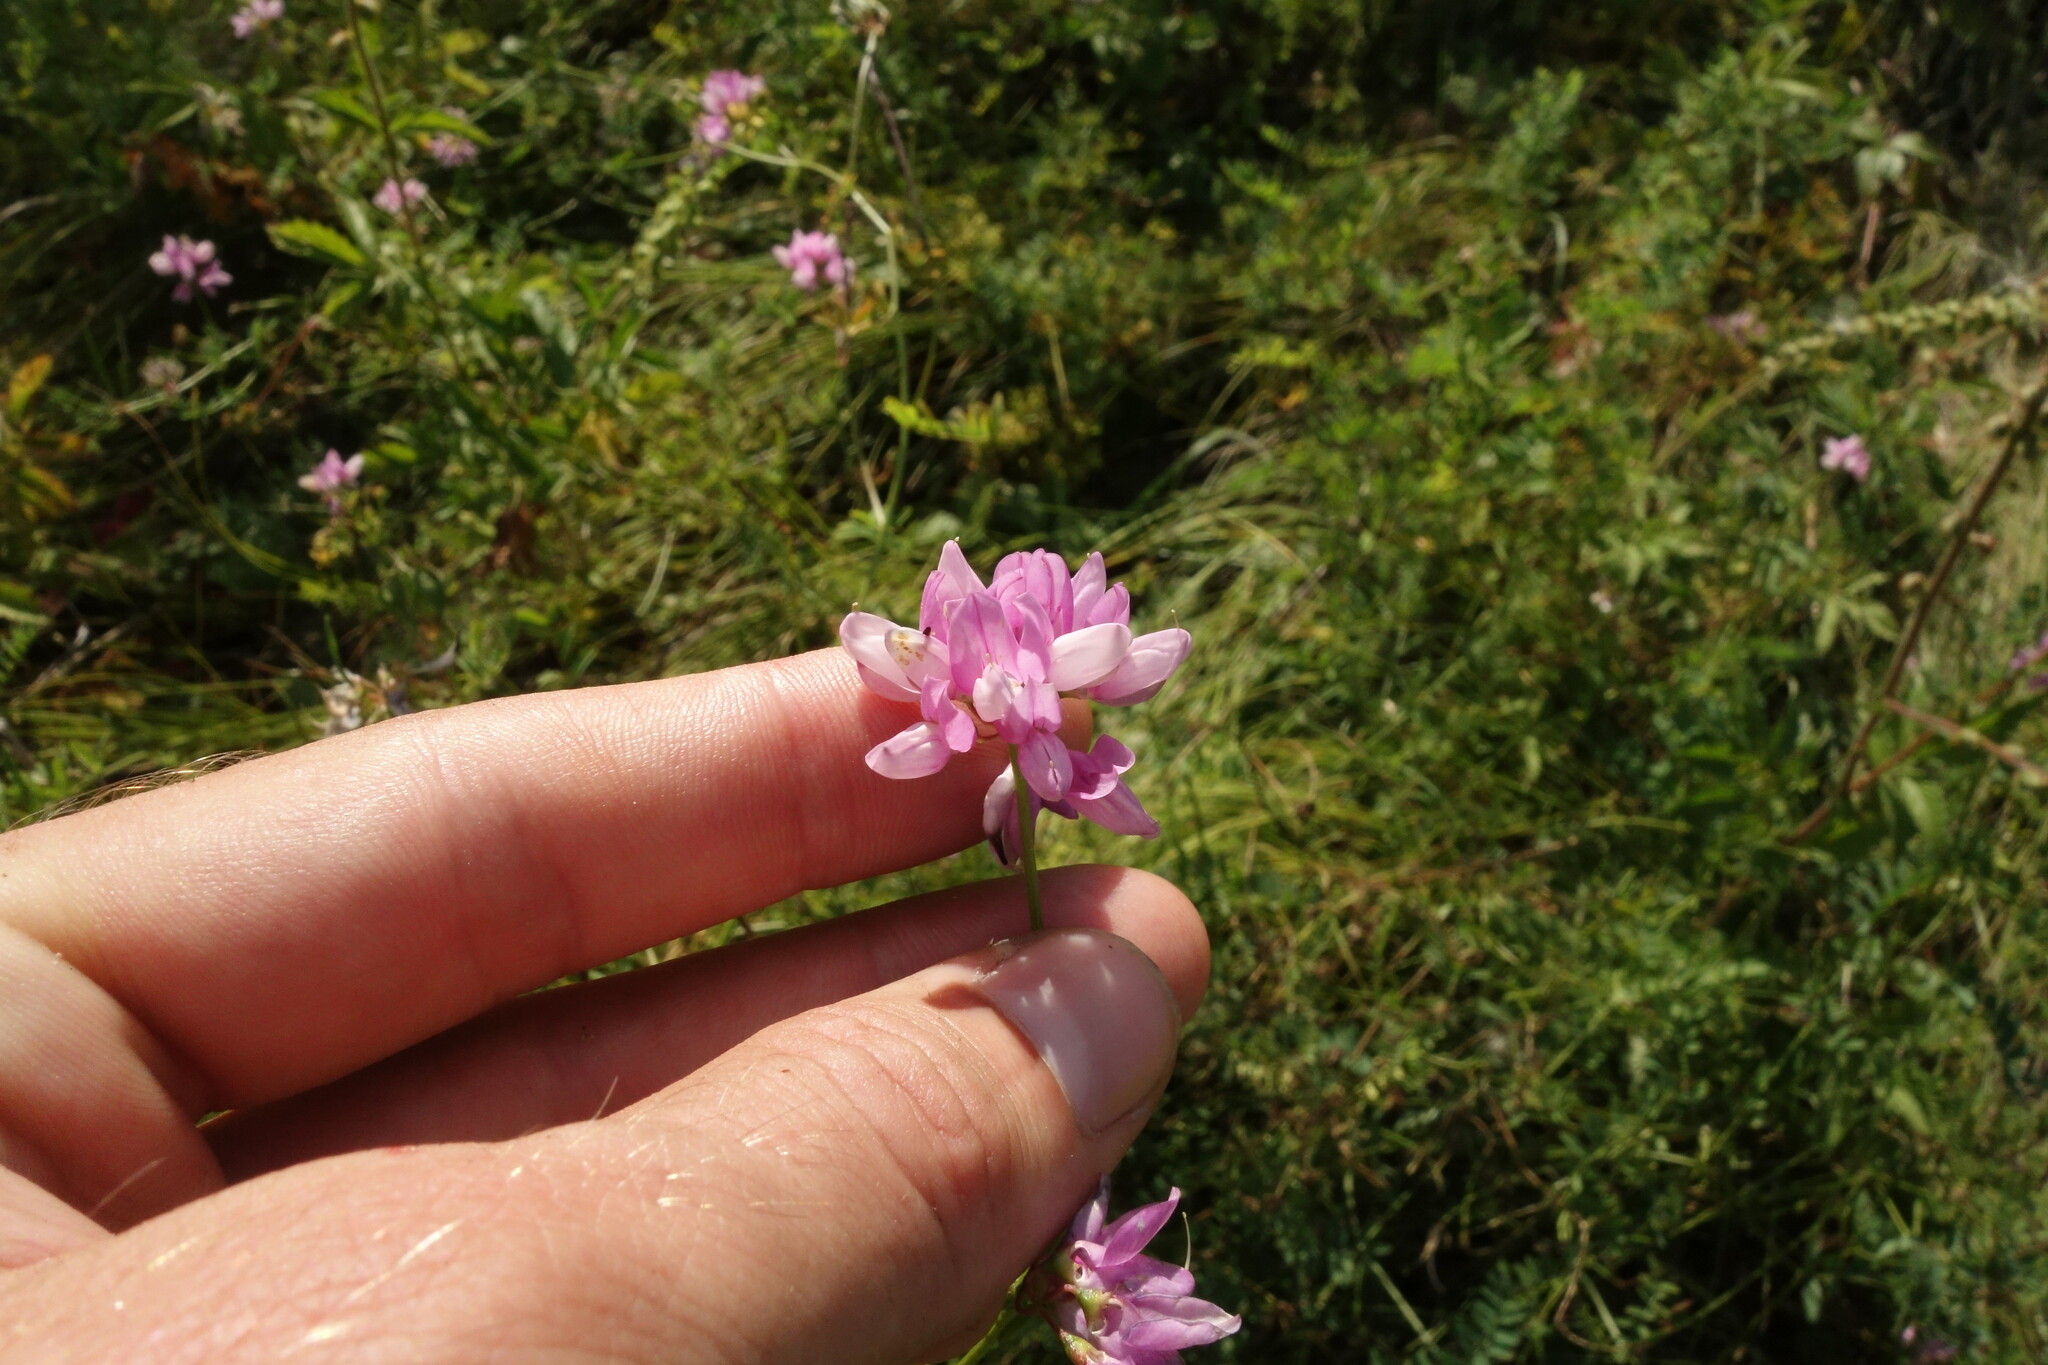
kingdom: Plantae
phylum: Tracheophyta
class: Magnoliopsida
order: Fabales
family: Fabaceae
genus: Coronilla
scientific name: Coronilla varia
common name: Crownvetch
